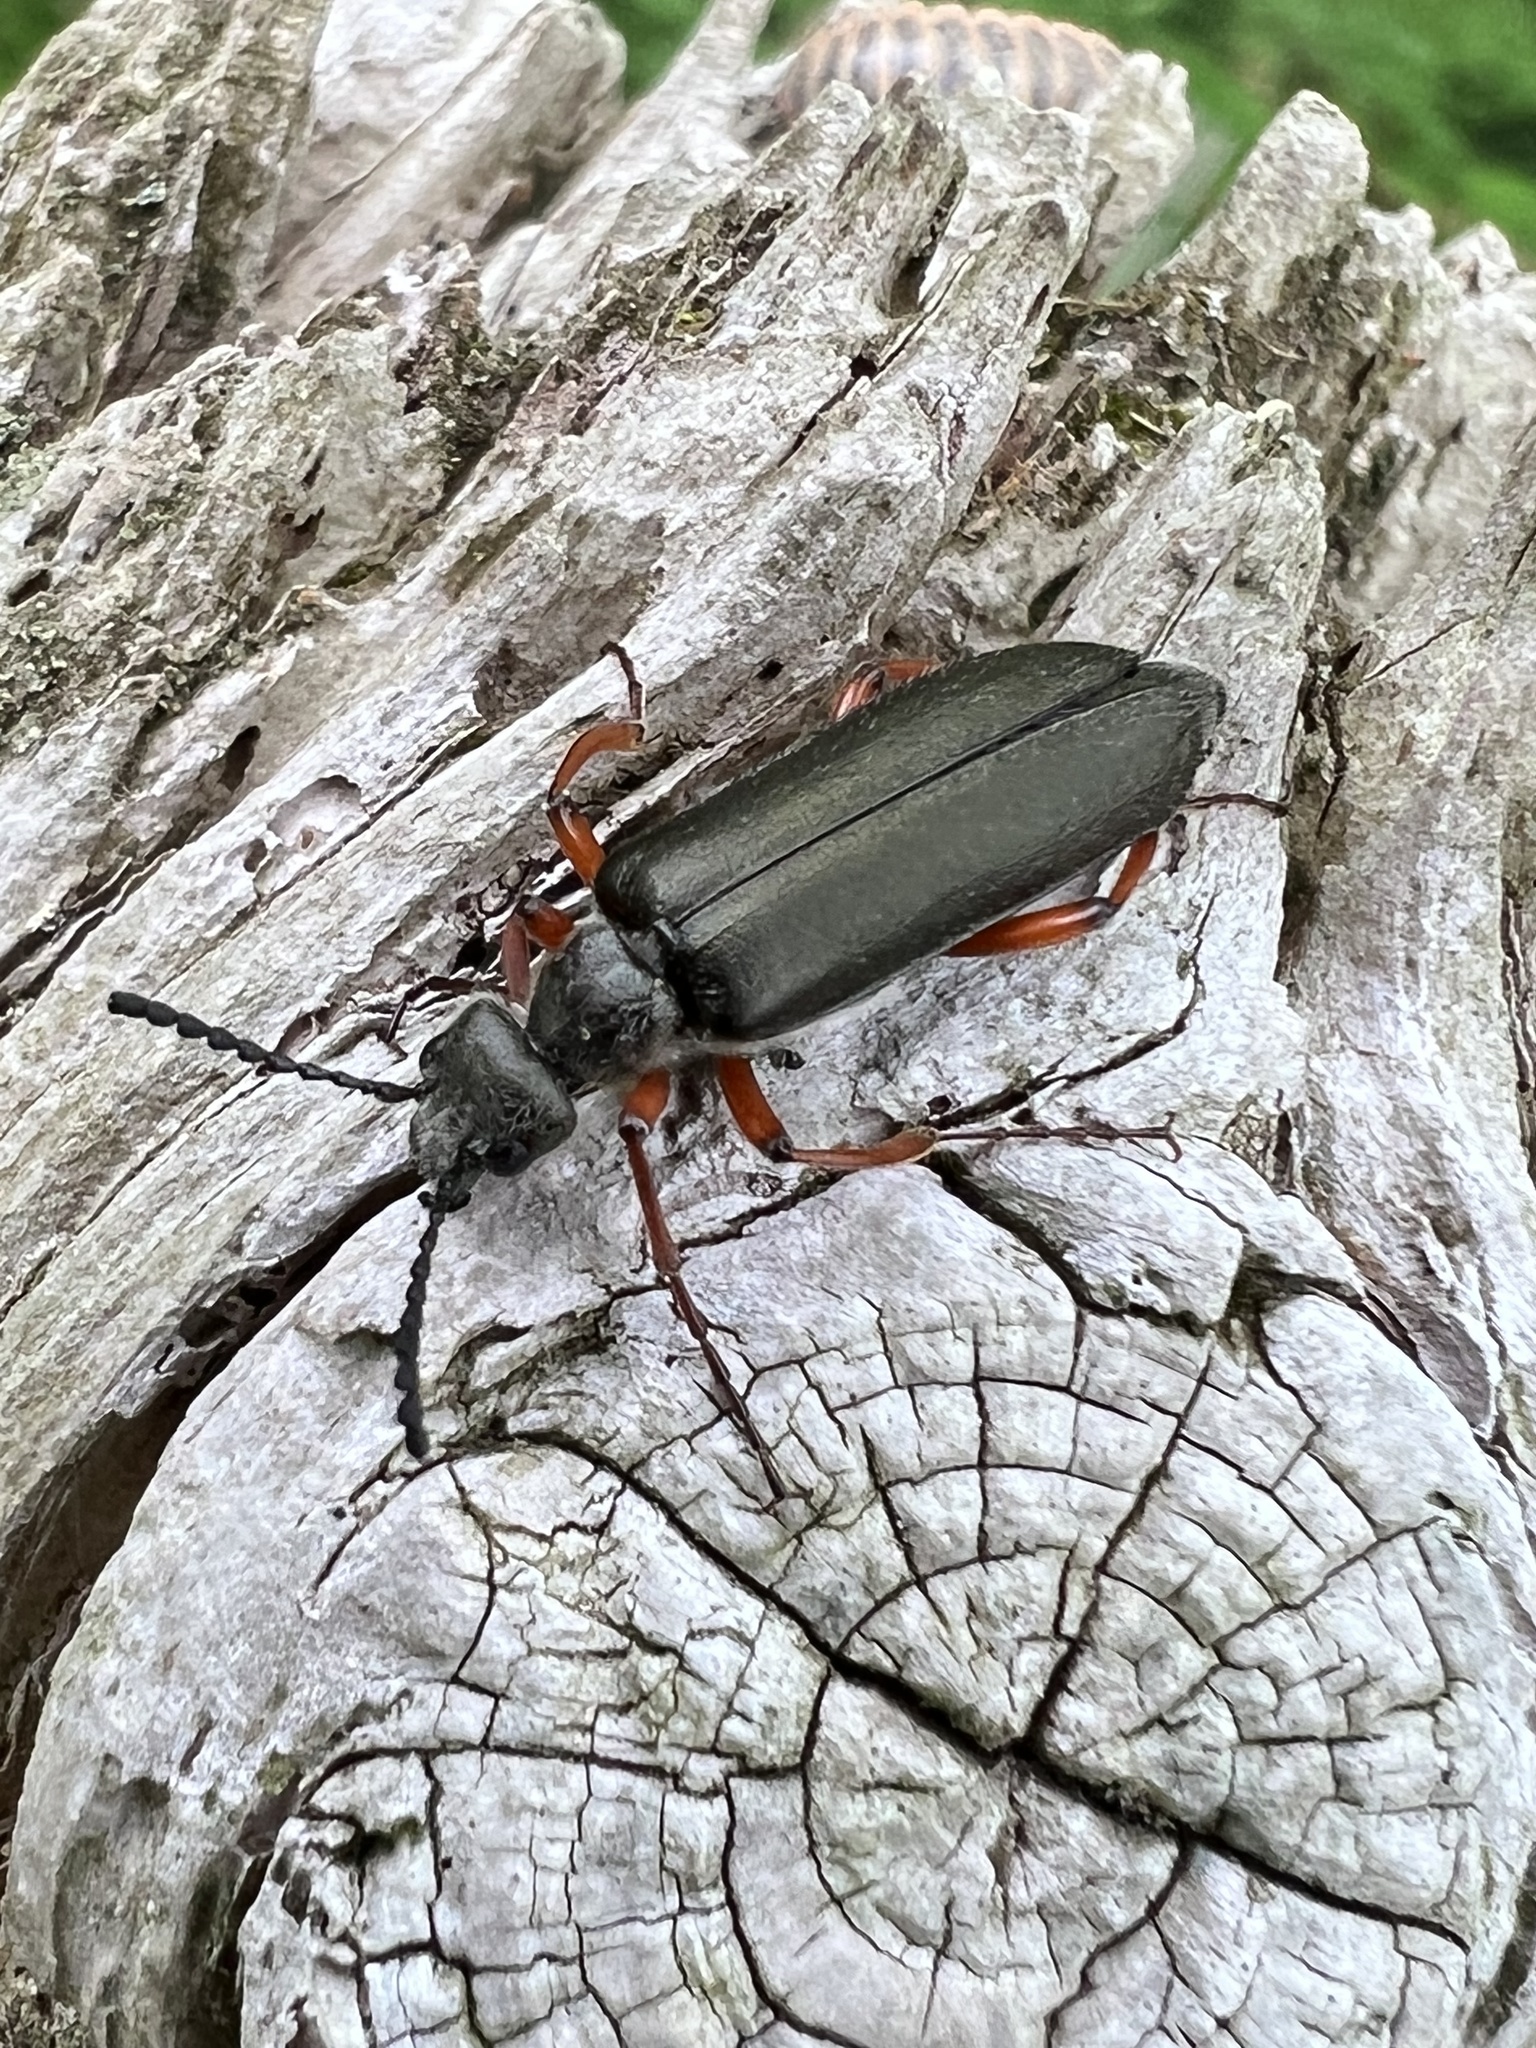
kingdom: Animalia
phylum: Arthropoda
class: Insecta
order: Coleoptera
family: Meloidae
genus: Lytta
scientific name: Lytta aenea
